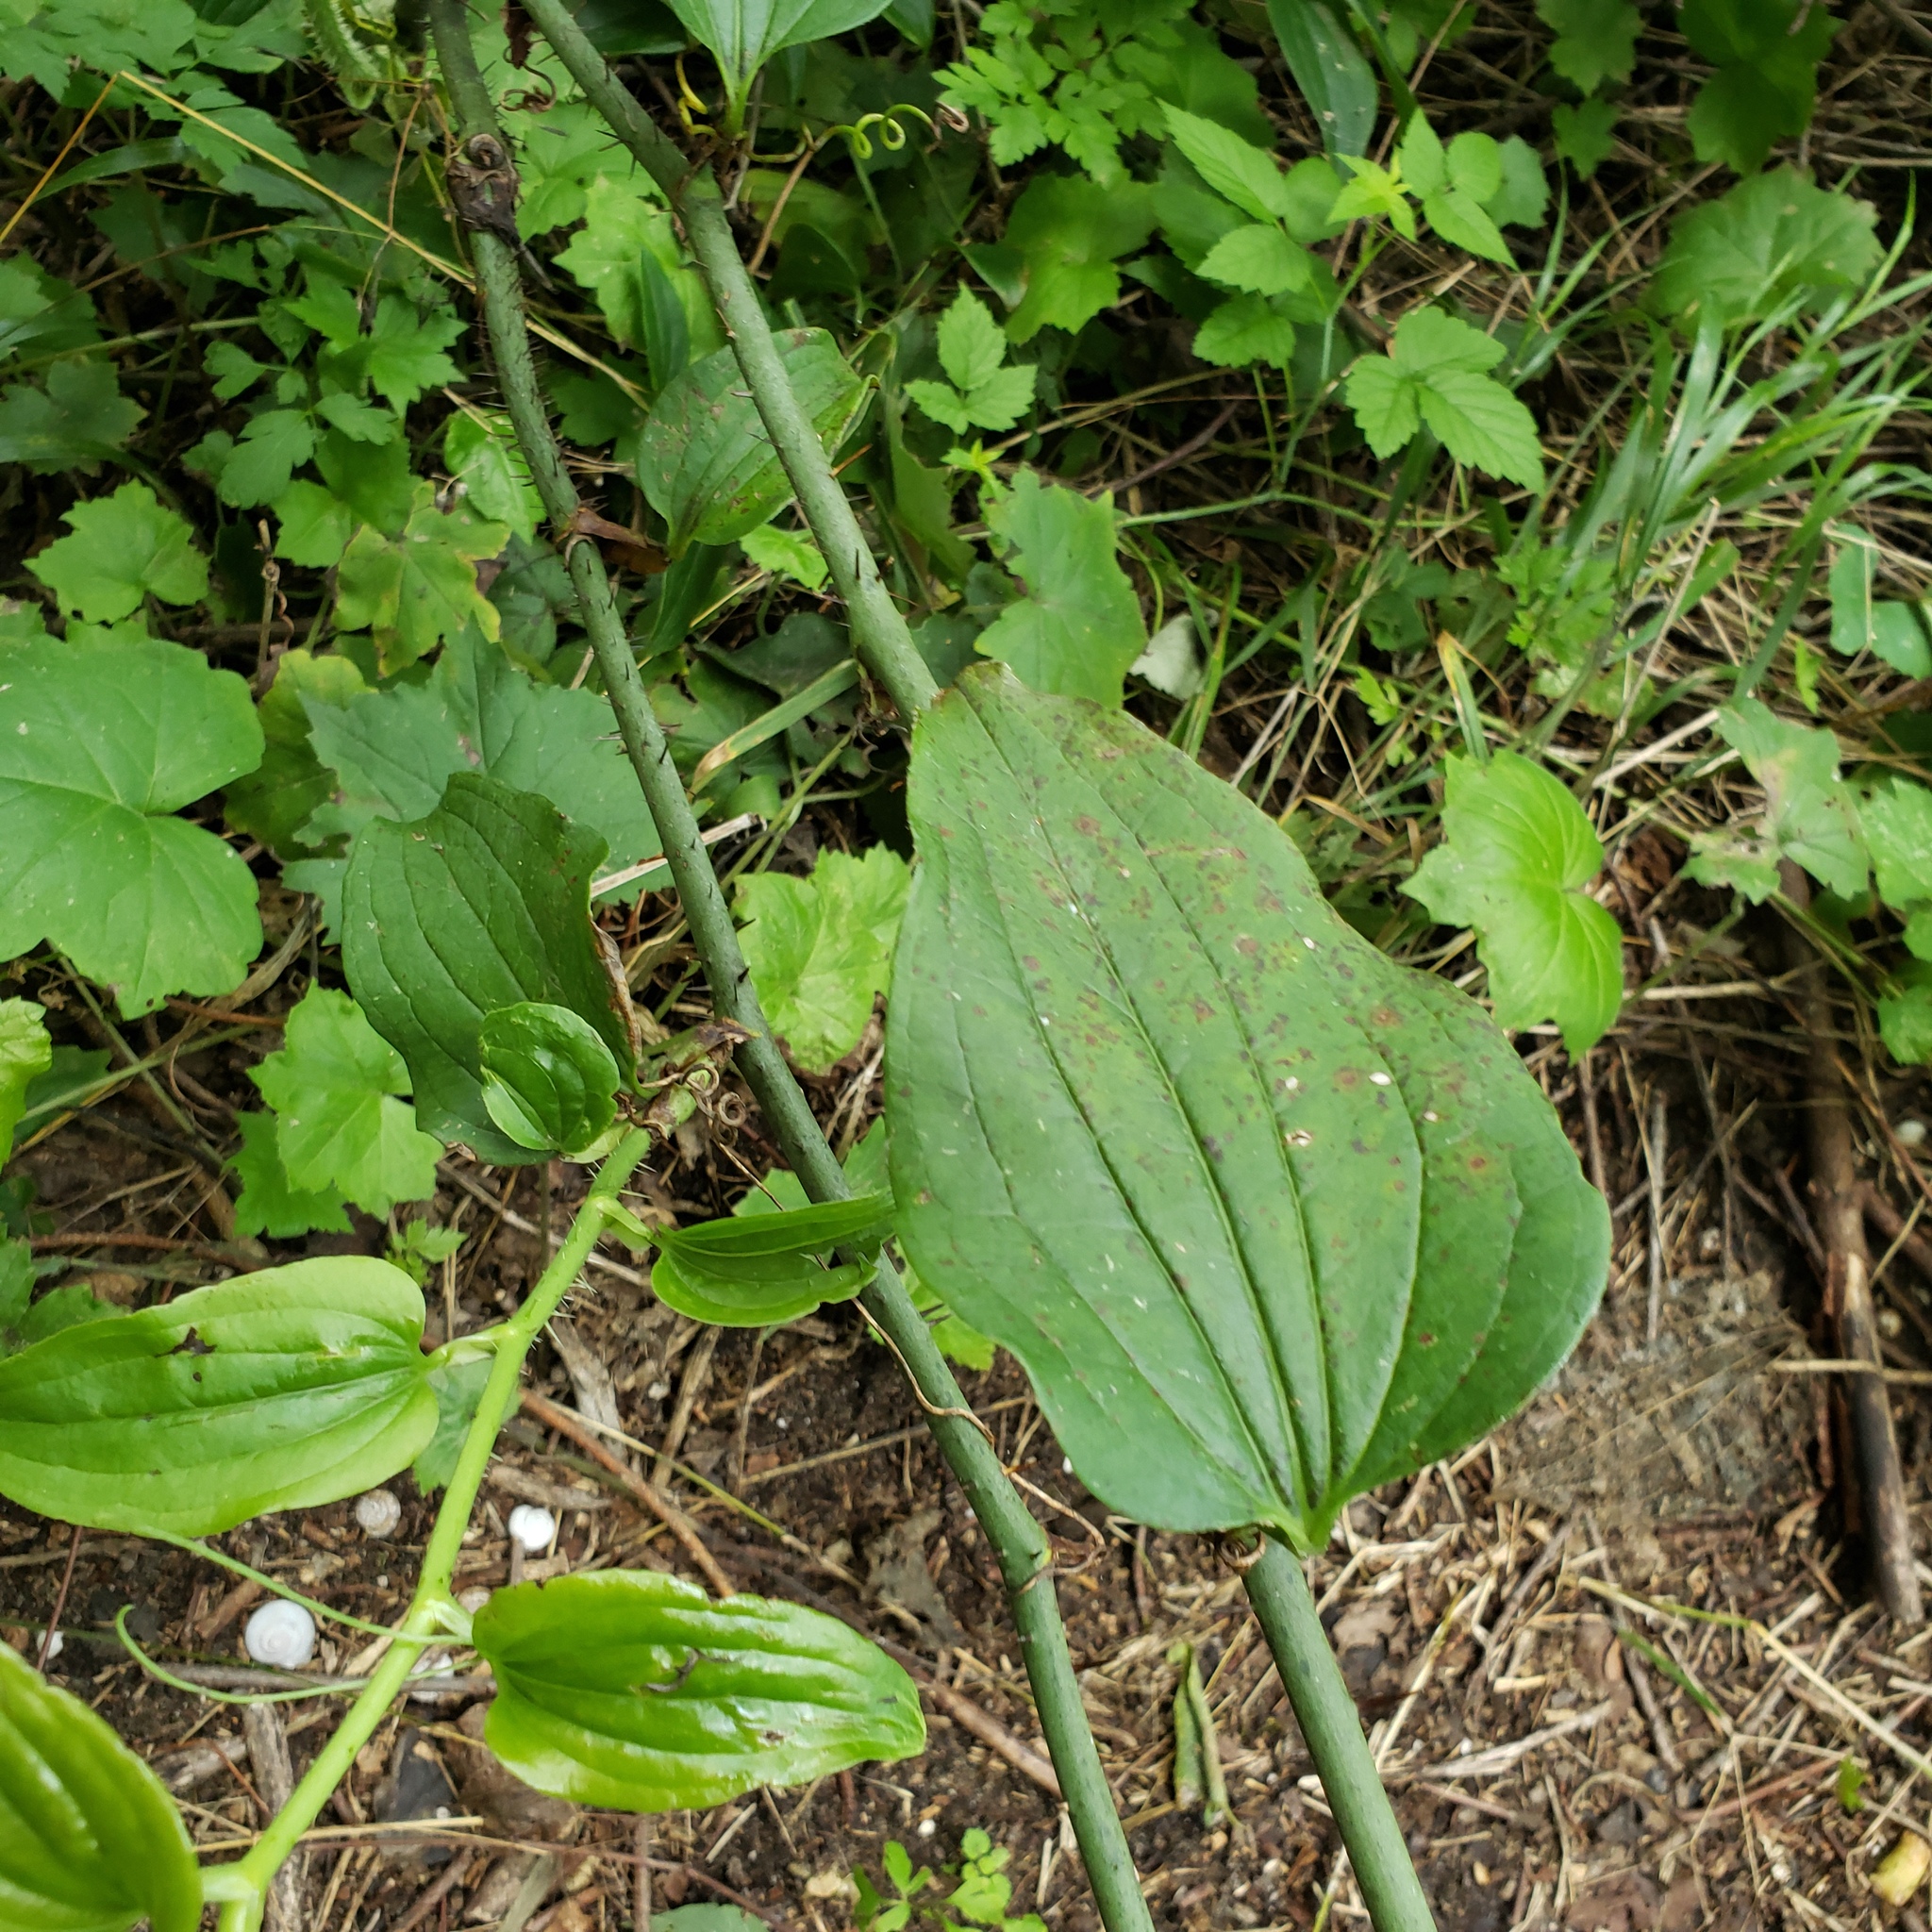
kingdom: Plantae
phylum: Tracheophyta
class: Liliopsida
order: Liliales
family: Smilacaceae
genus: Smilax
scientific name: Smilax tamnoides
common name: Hellfetter
